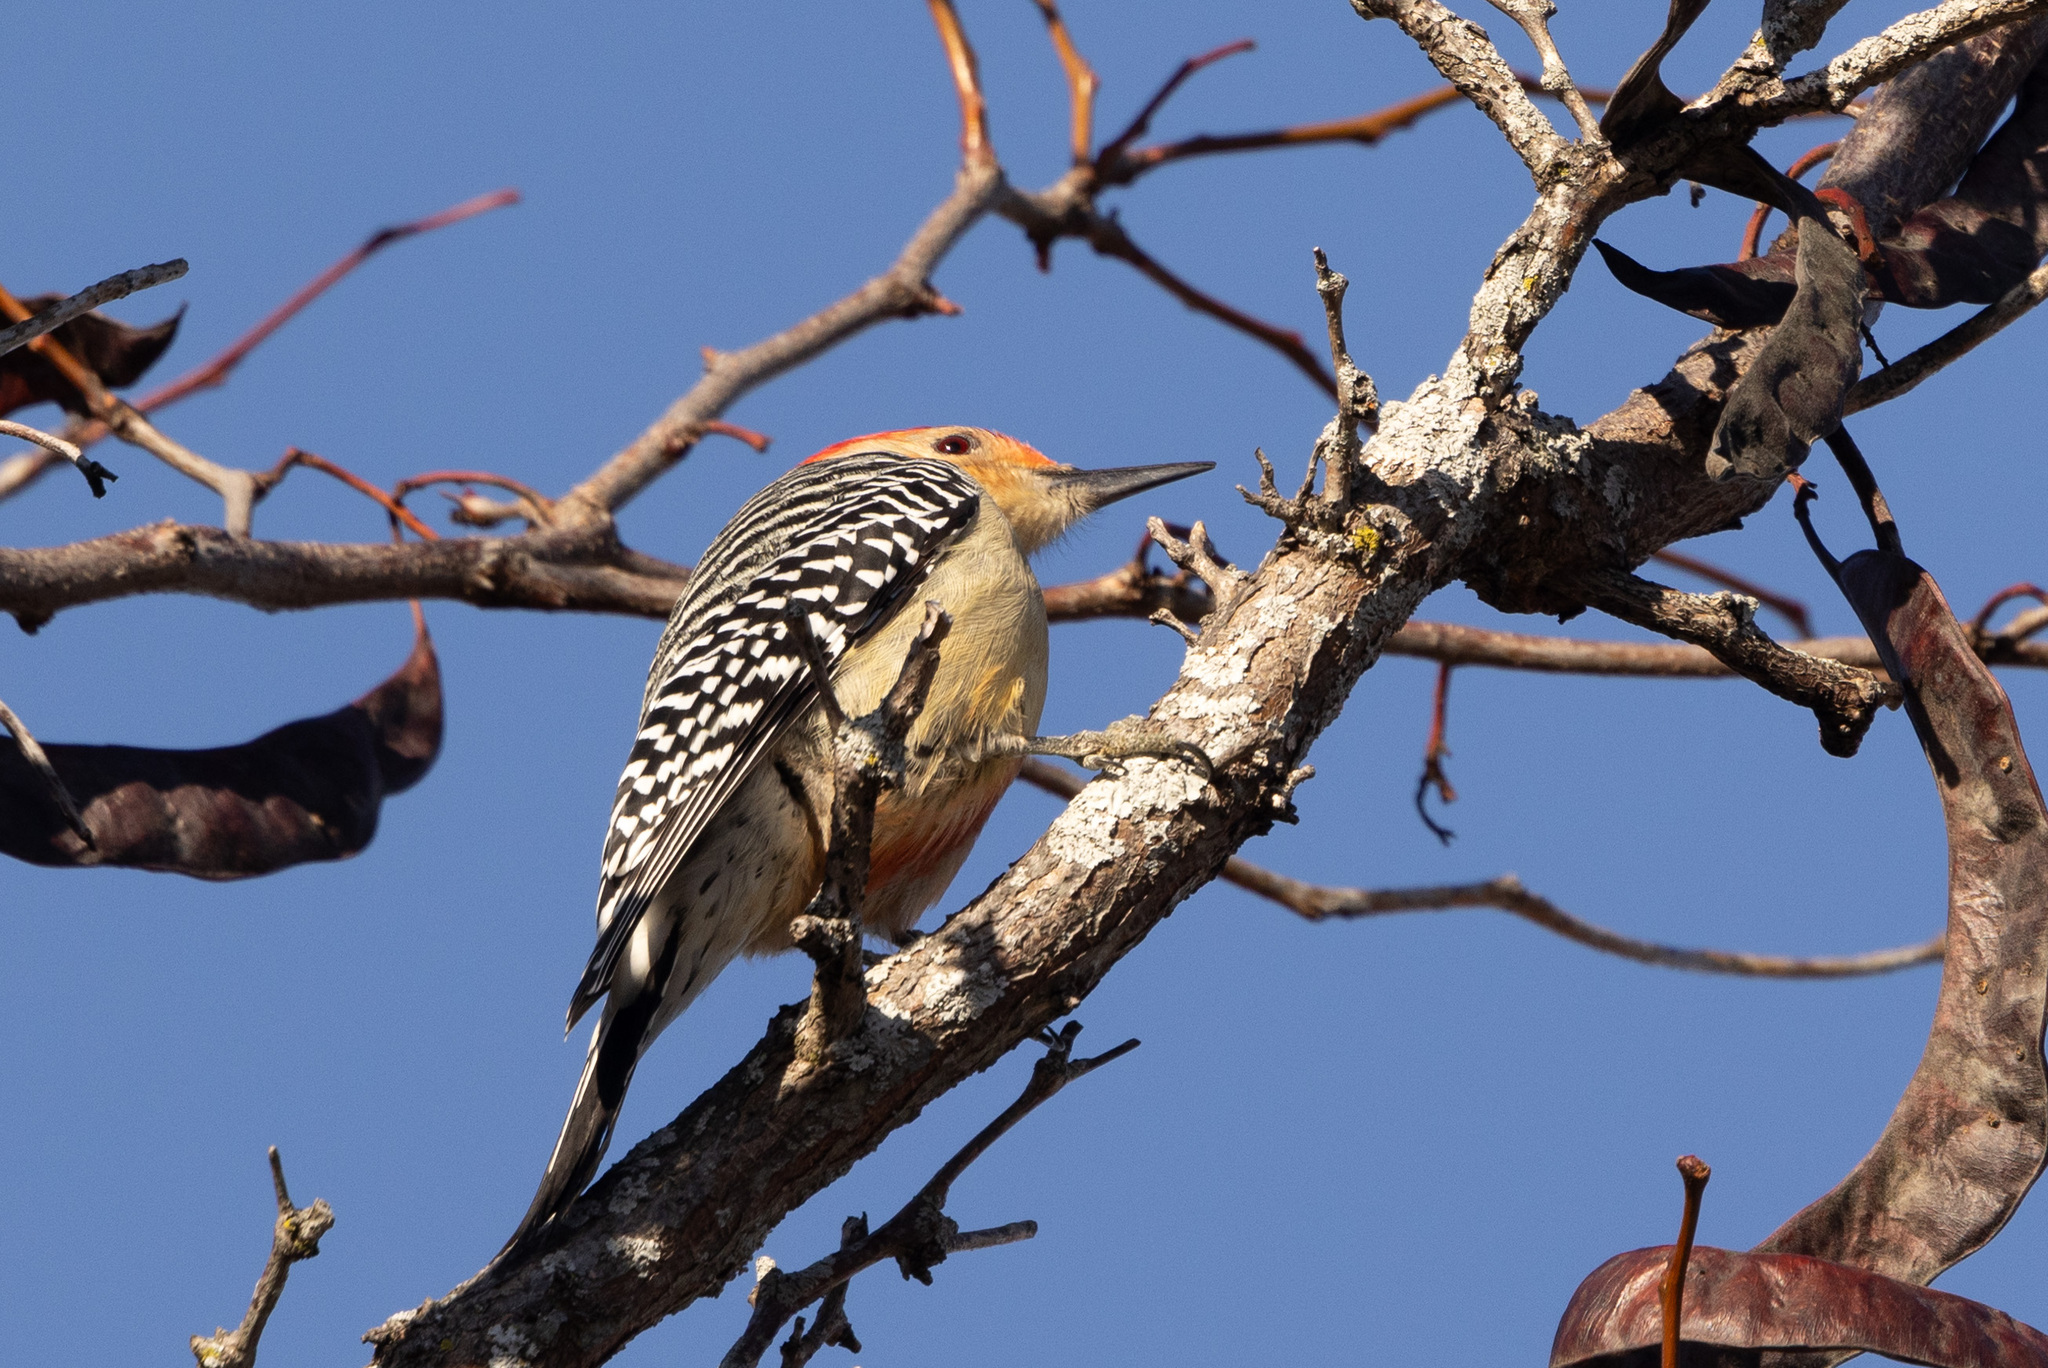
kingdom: Animalia
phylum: Chordata
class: Aves
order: Piciformes
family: Picidae
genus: Melanerpes
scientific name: Melanerpes carolinus
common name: Red-bellied woodpecker
